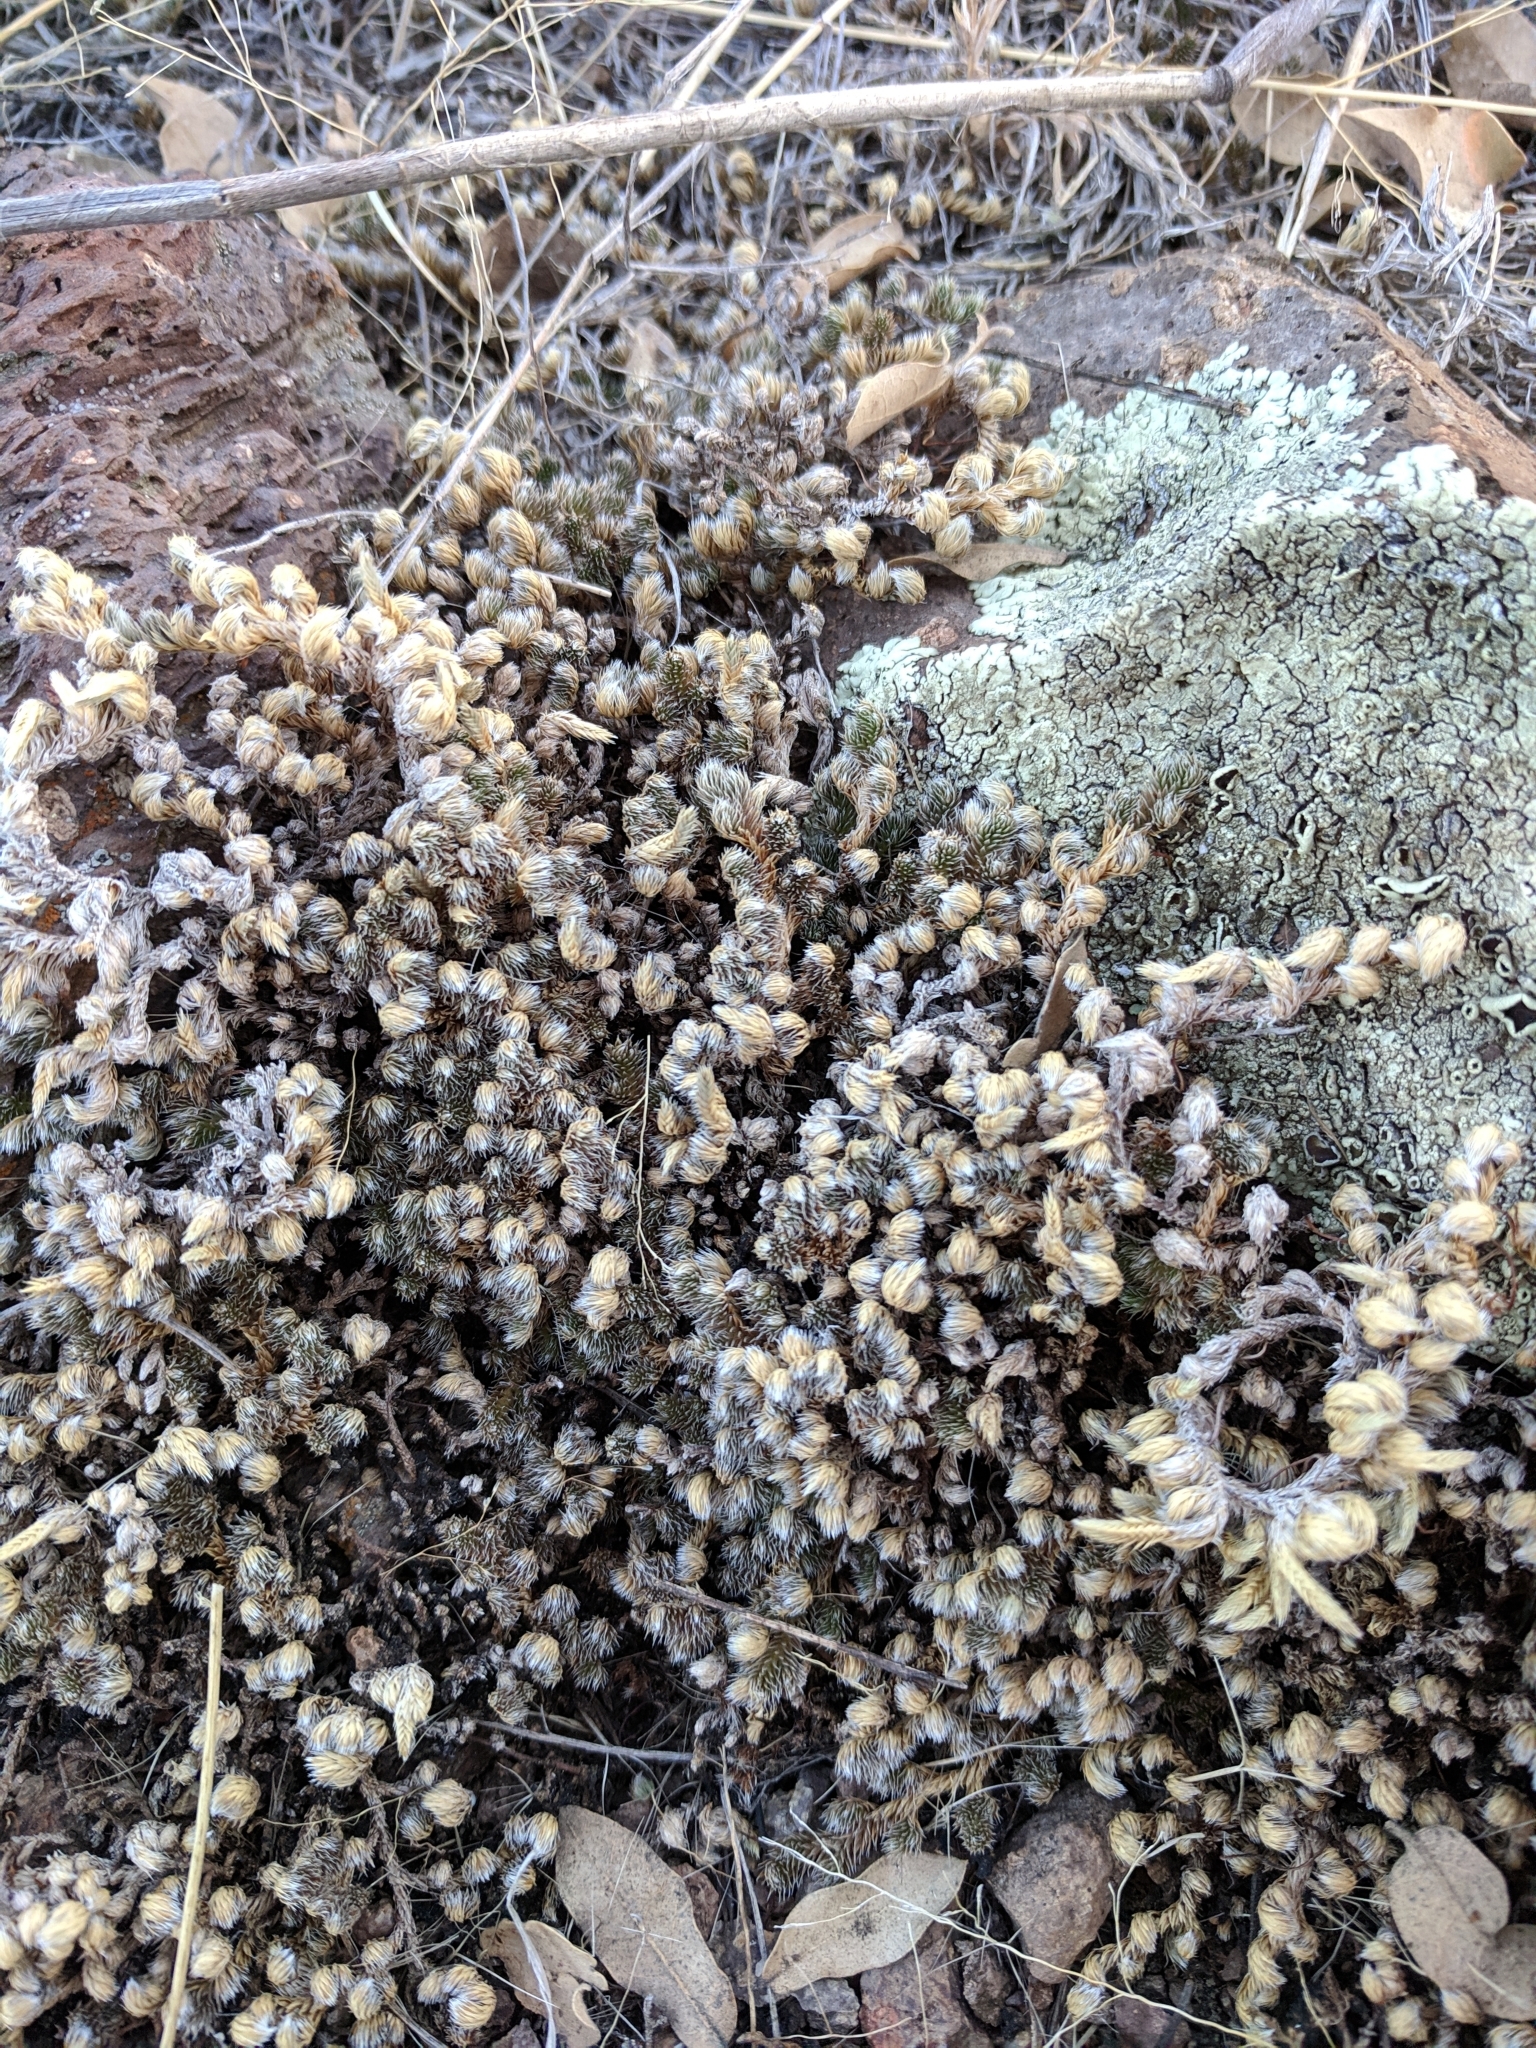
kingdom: Plantae
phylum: Tracheophyta
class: Lycopodiopsida
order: Selaginellales
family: Selaginellaceae
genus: Selaginella
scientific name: Selaginella peruviana
